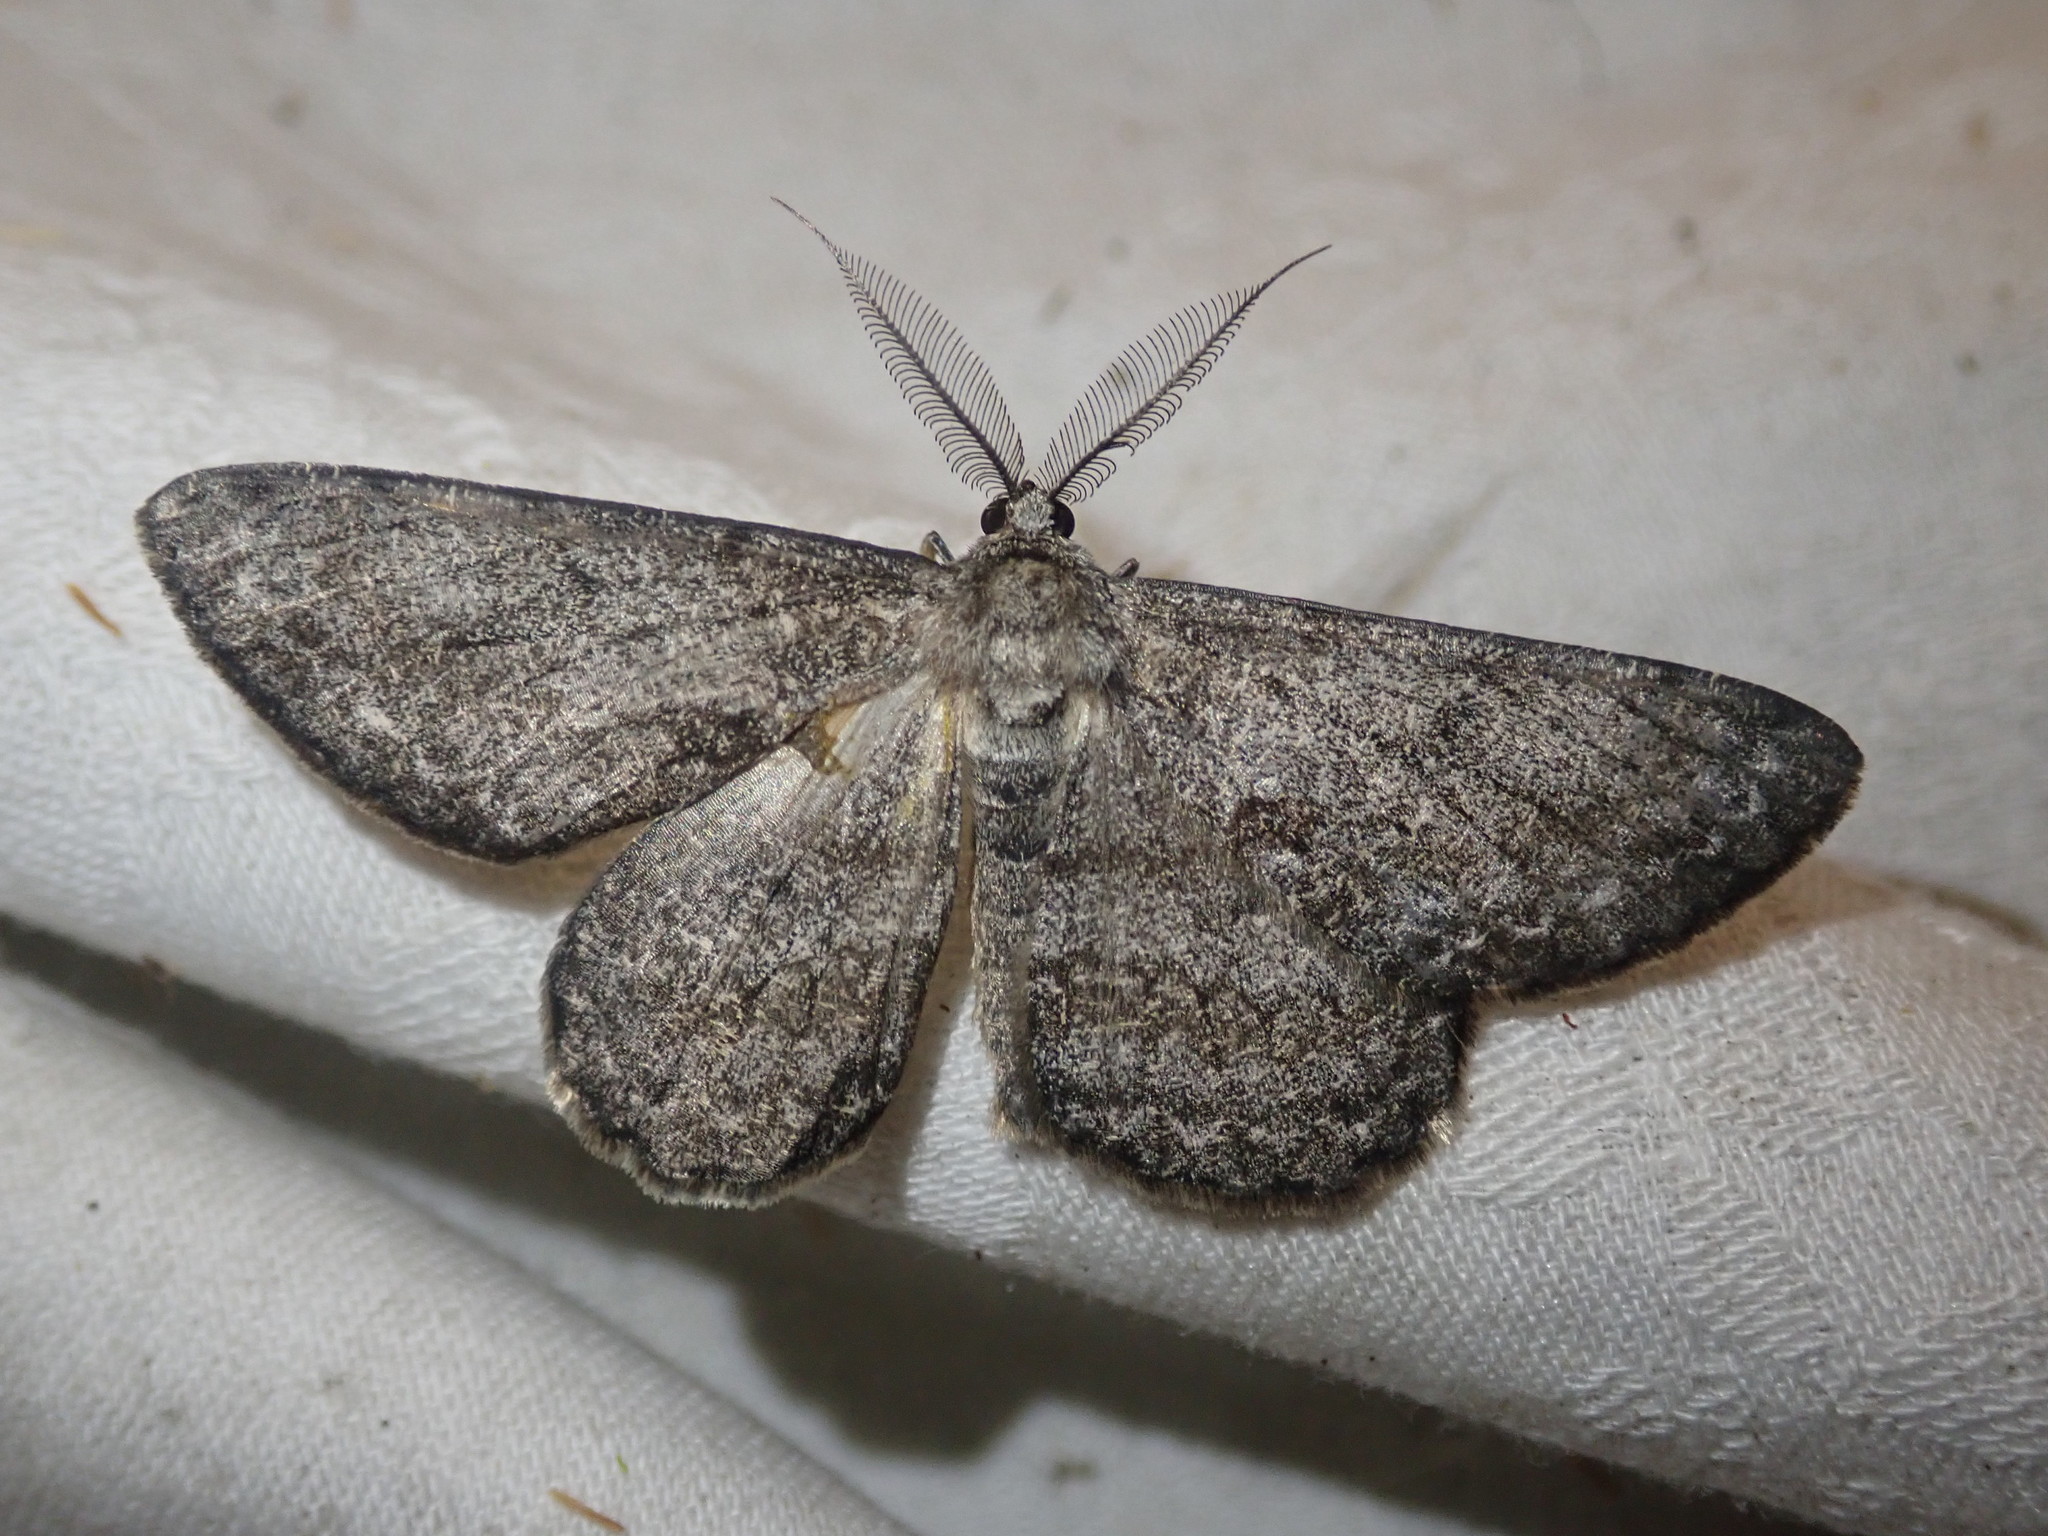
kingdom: Animalia
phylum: Arthropoda
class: Insecta
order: Lepidoptera
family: Geometridae
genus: Hypomecis
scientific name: Hypomecis roboraria
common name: Great oak beauty
